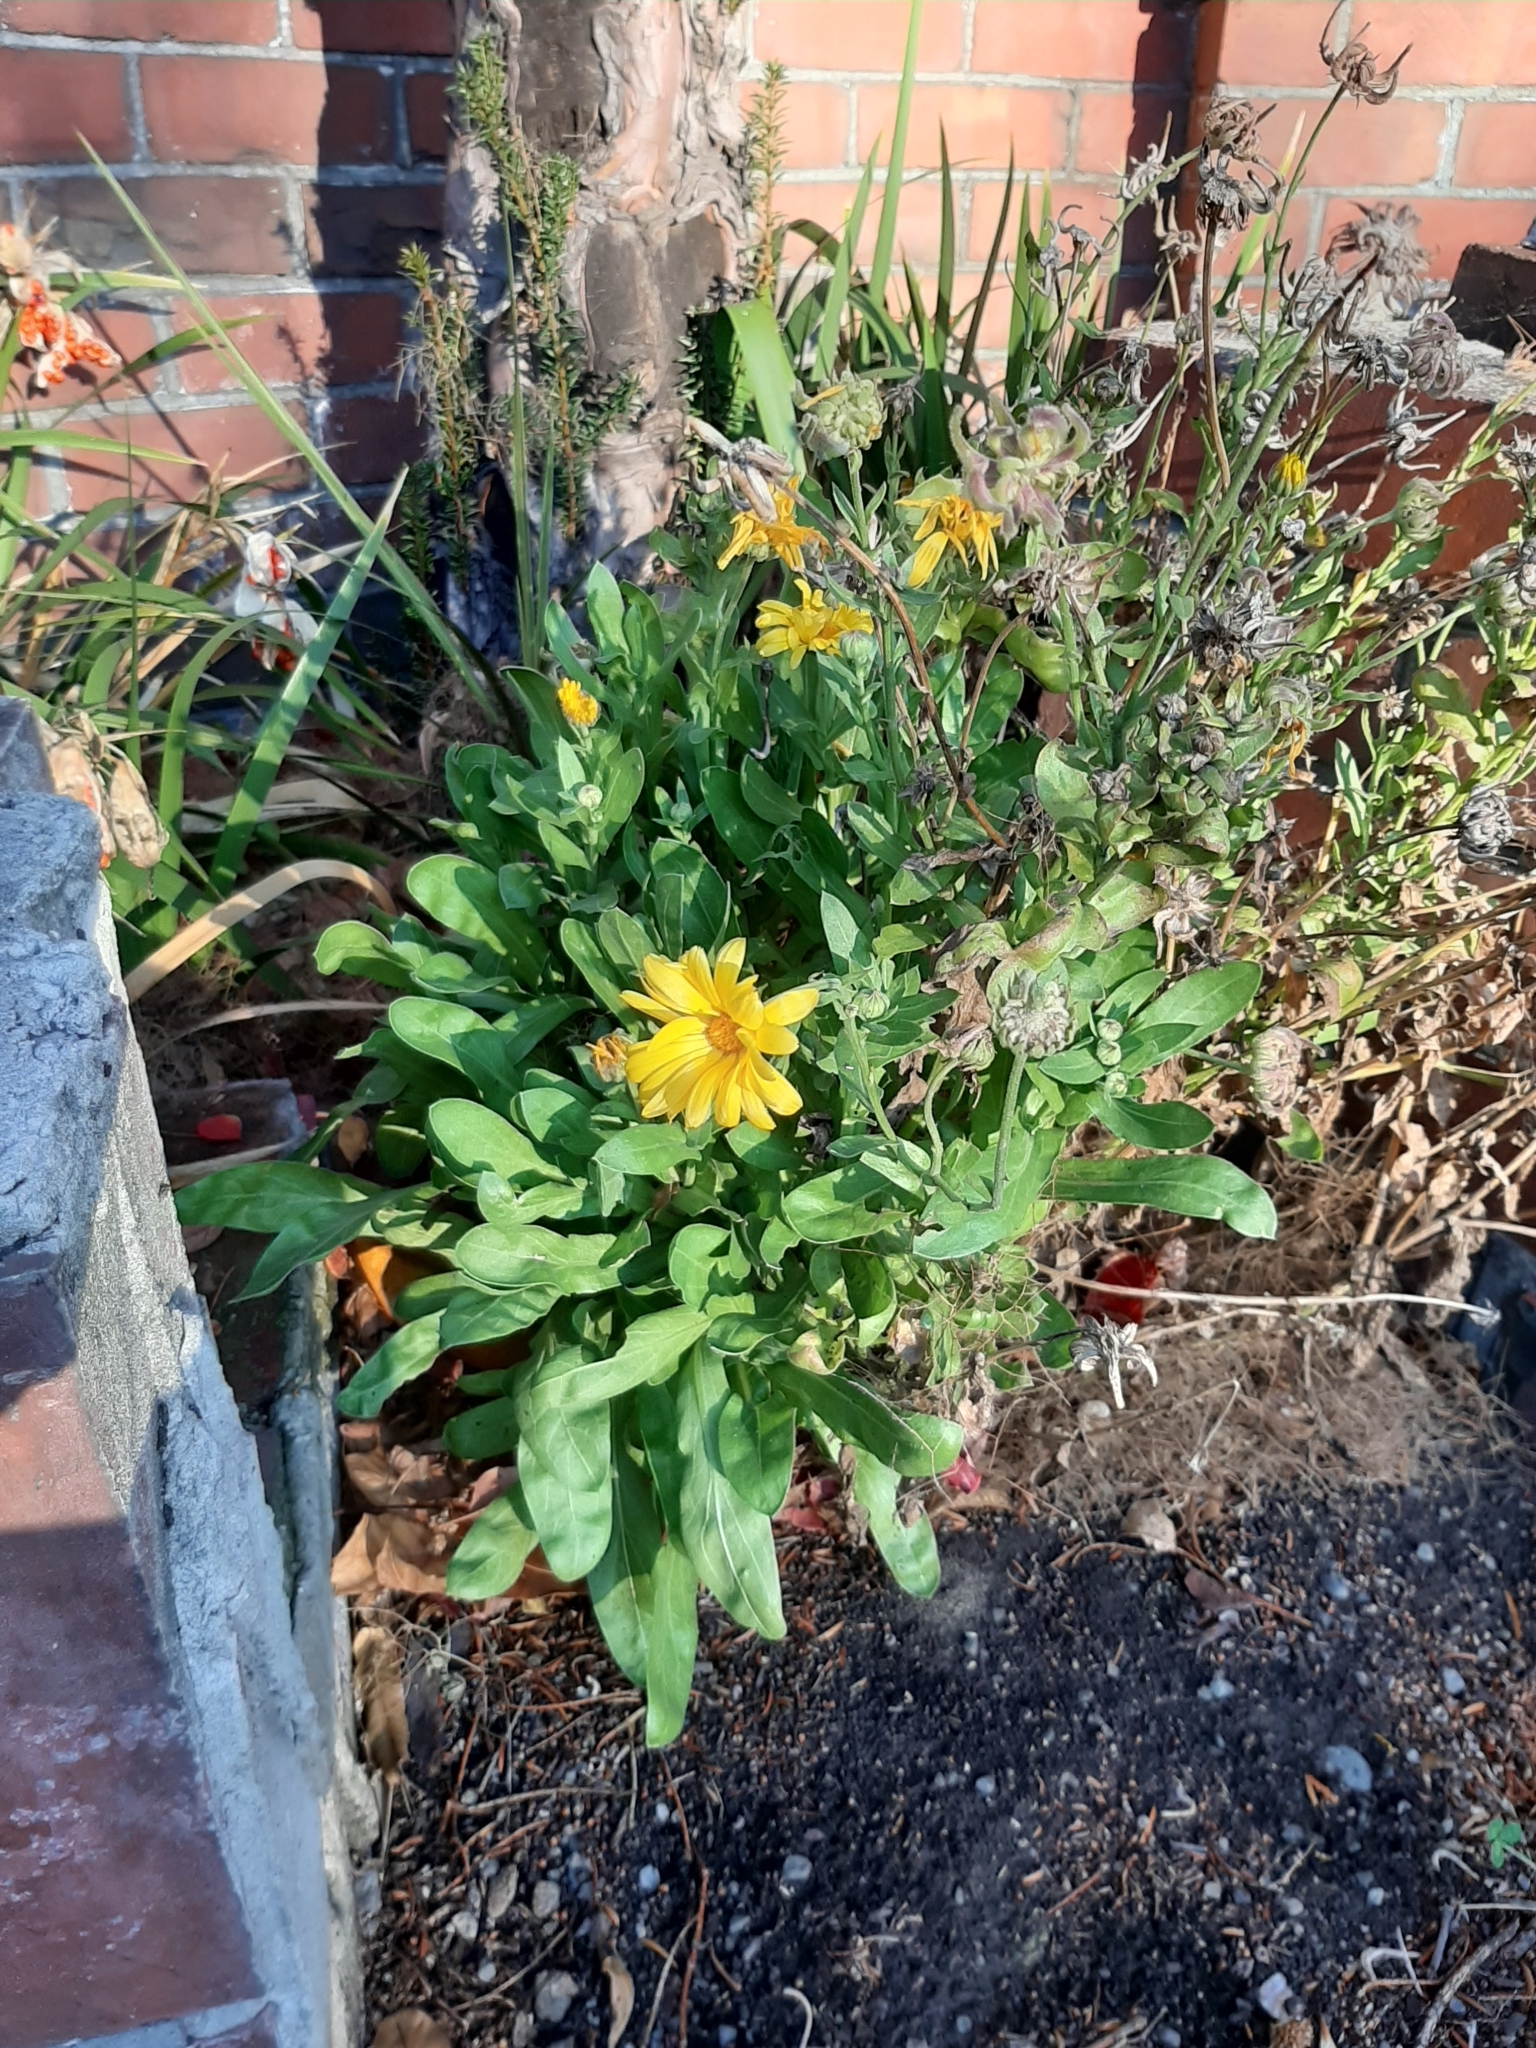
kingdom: Plantae
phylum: Tracheophyta
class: Magnoliopsida
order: Asterales
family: Asteraceae
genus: Calendula
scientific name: Calendula officinalis
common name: Pot marigold
